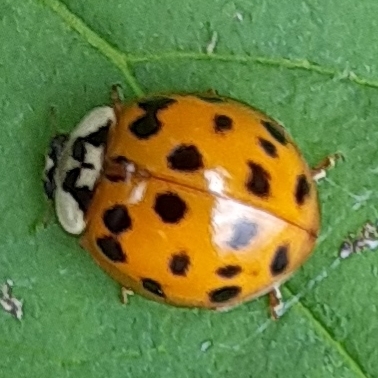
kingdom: Animalia
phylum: Arthropoda
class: Insecta
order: Coleoptera
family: Coccinellidae
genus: Harmonia
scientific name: Harmonia axyridis
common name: Harlequin ladybird
